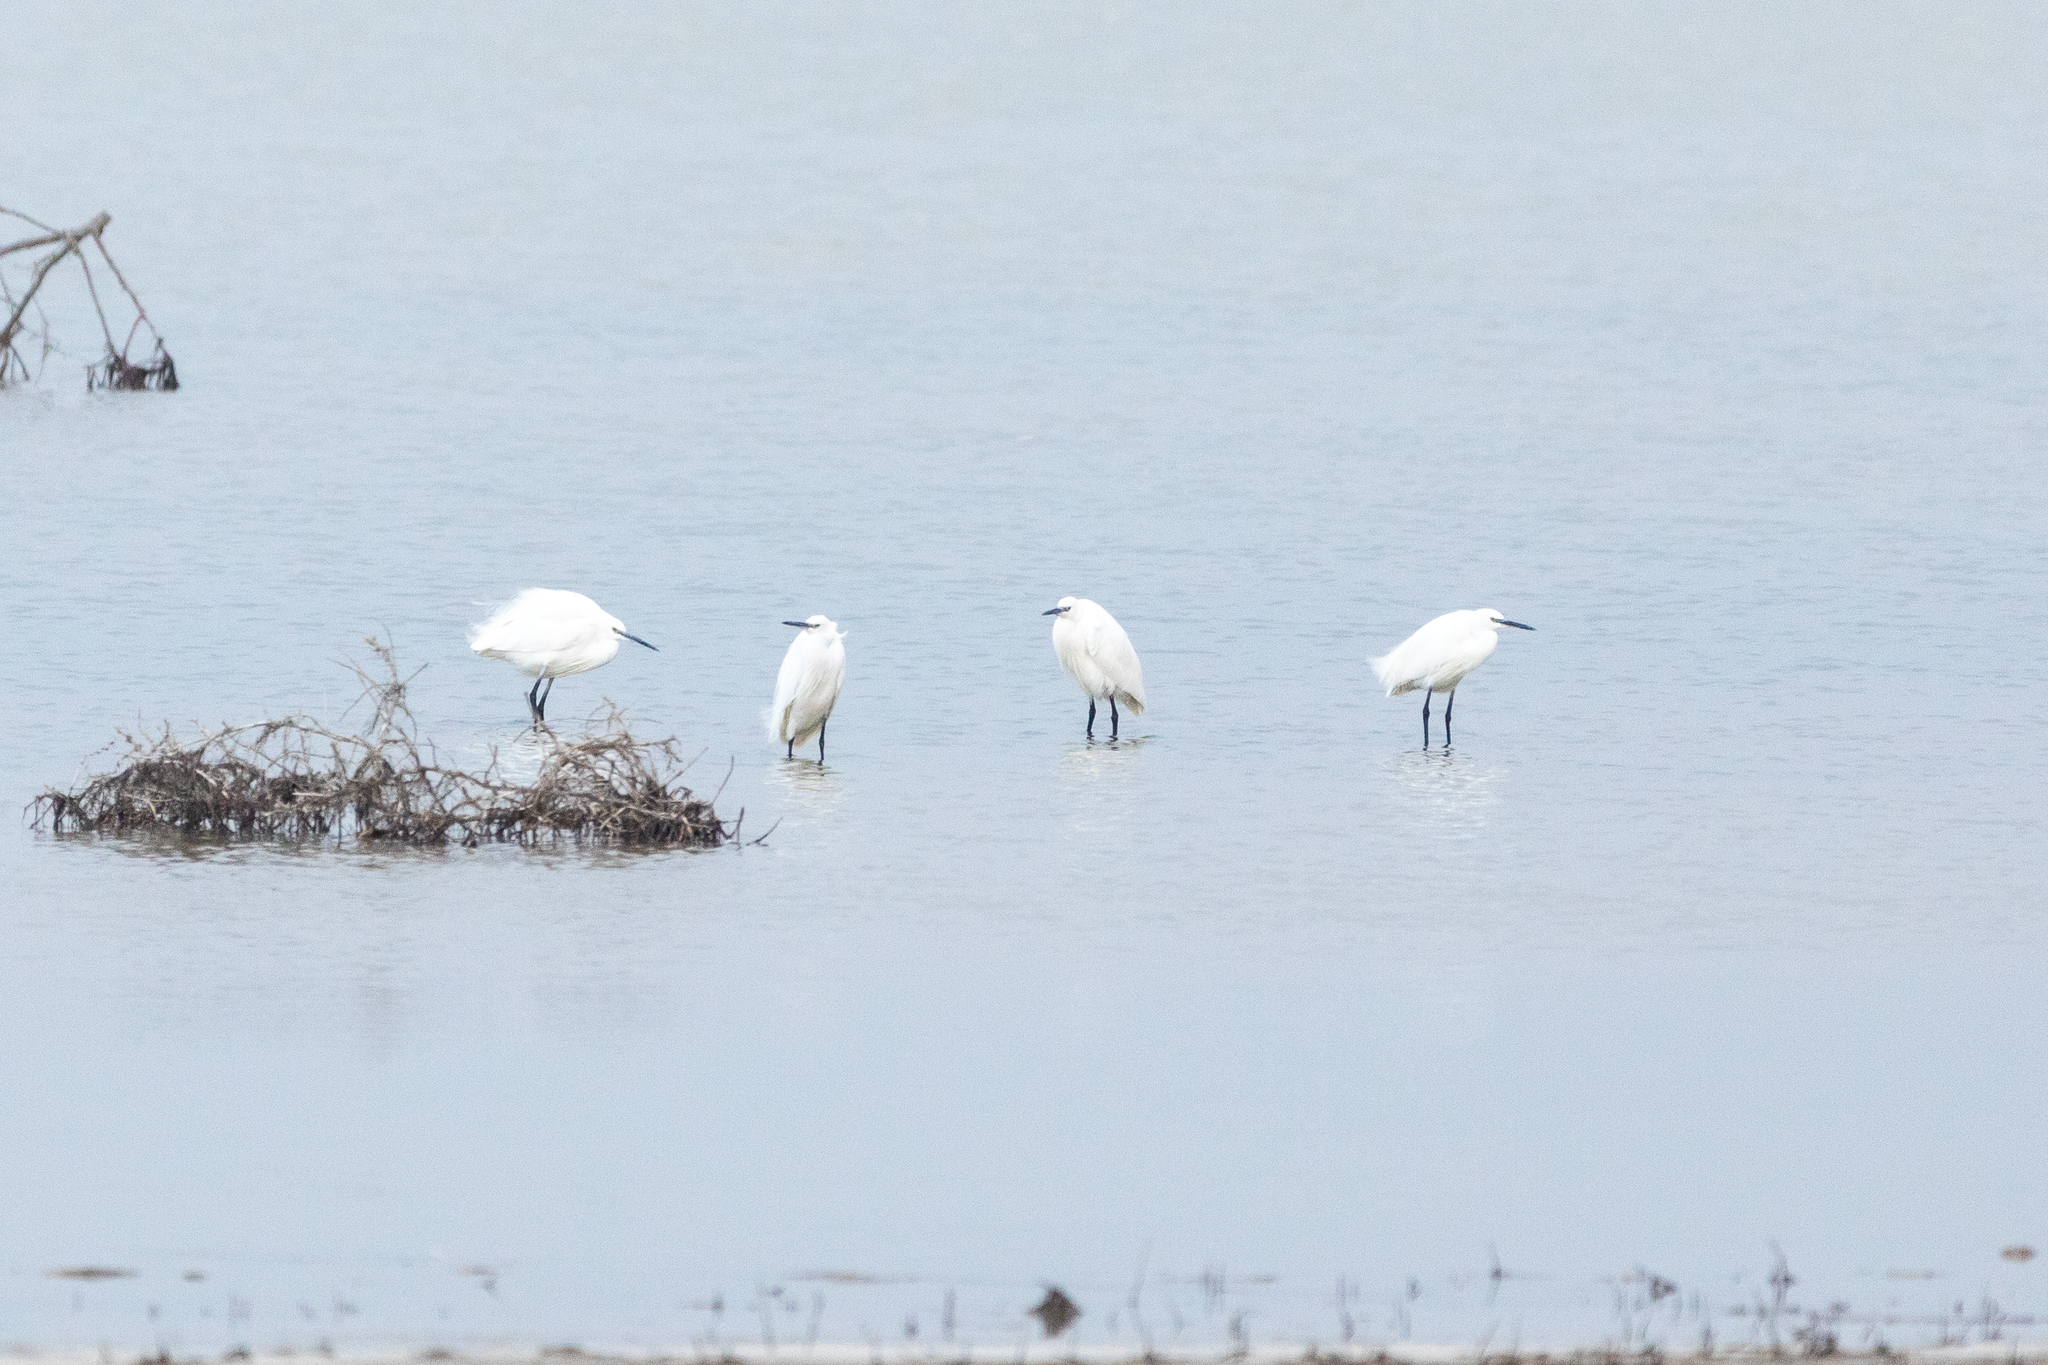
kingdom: Animalia
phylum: Chordata
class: Aves
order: Pelecaniformes
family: Ardeidae
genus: Egretta
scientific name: Egretta garzetta
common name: Little egret
